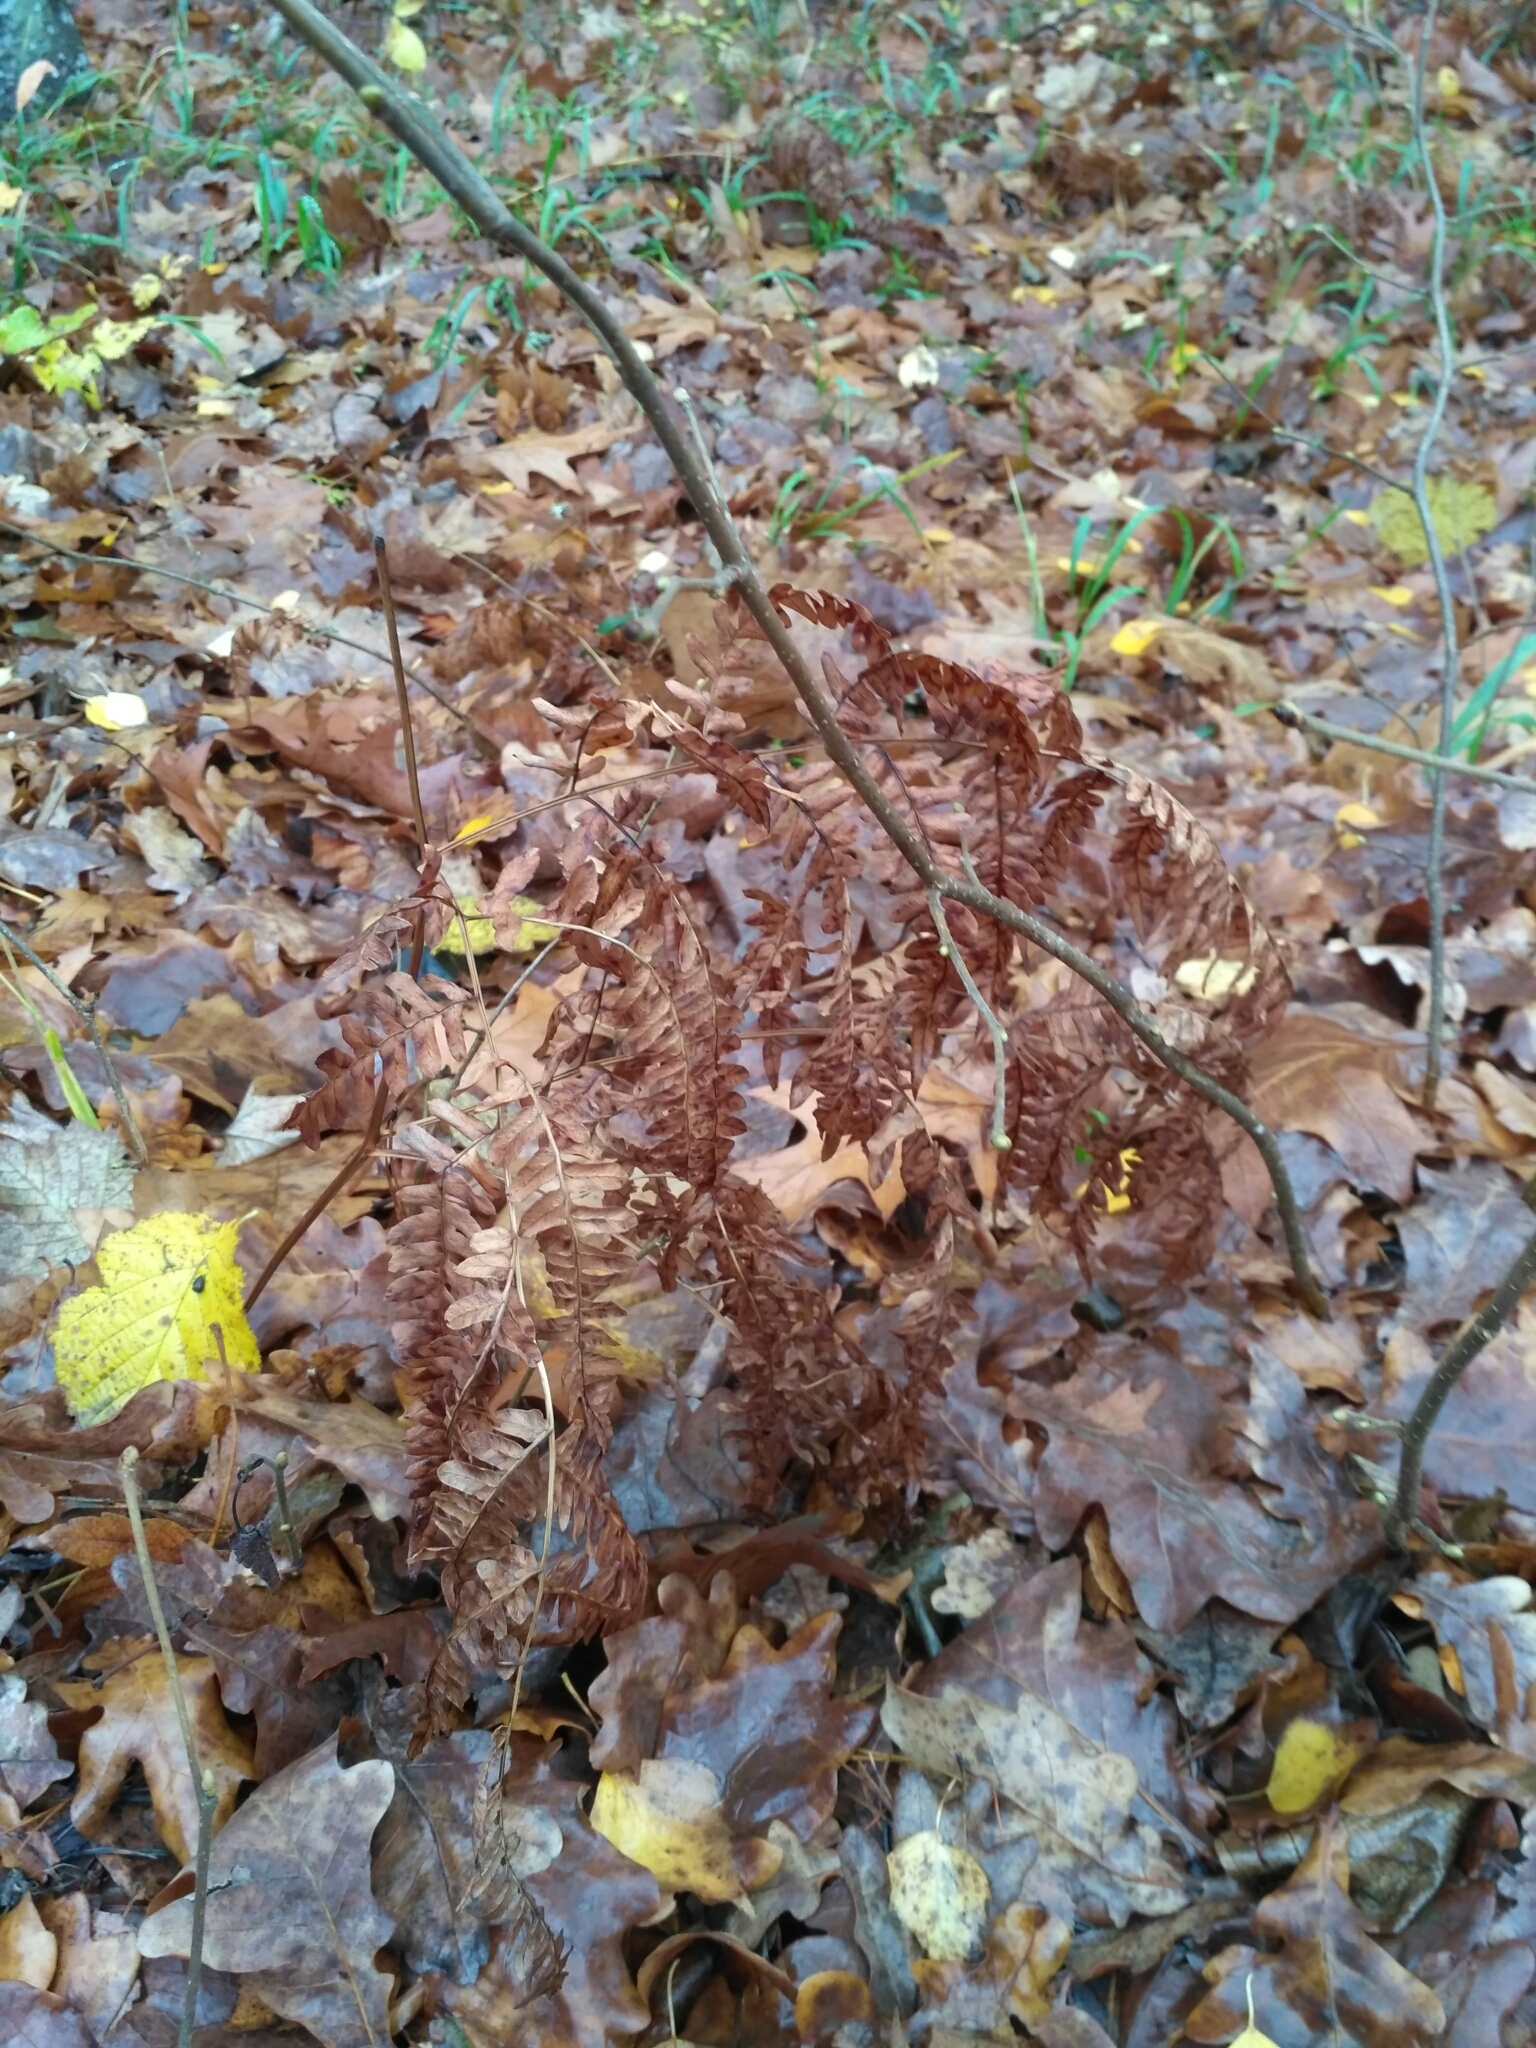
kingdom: Plantae
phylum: Tracheophyta
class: Polypodiopsida
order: Polypodiales
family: Dennstaedtiaceae
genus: Pteridium
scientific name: Pteridium aquilinum
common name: Bracken
